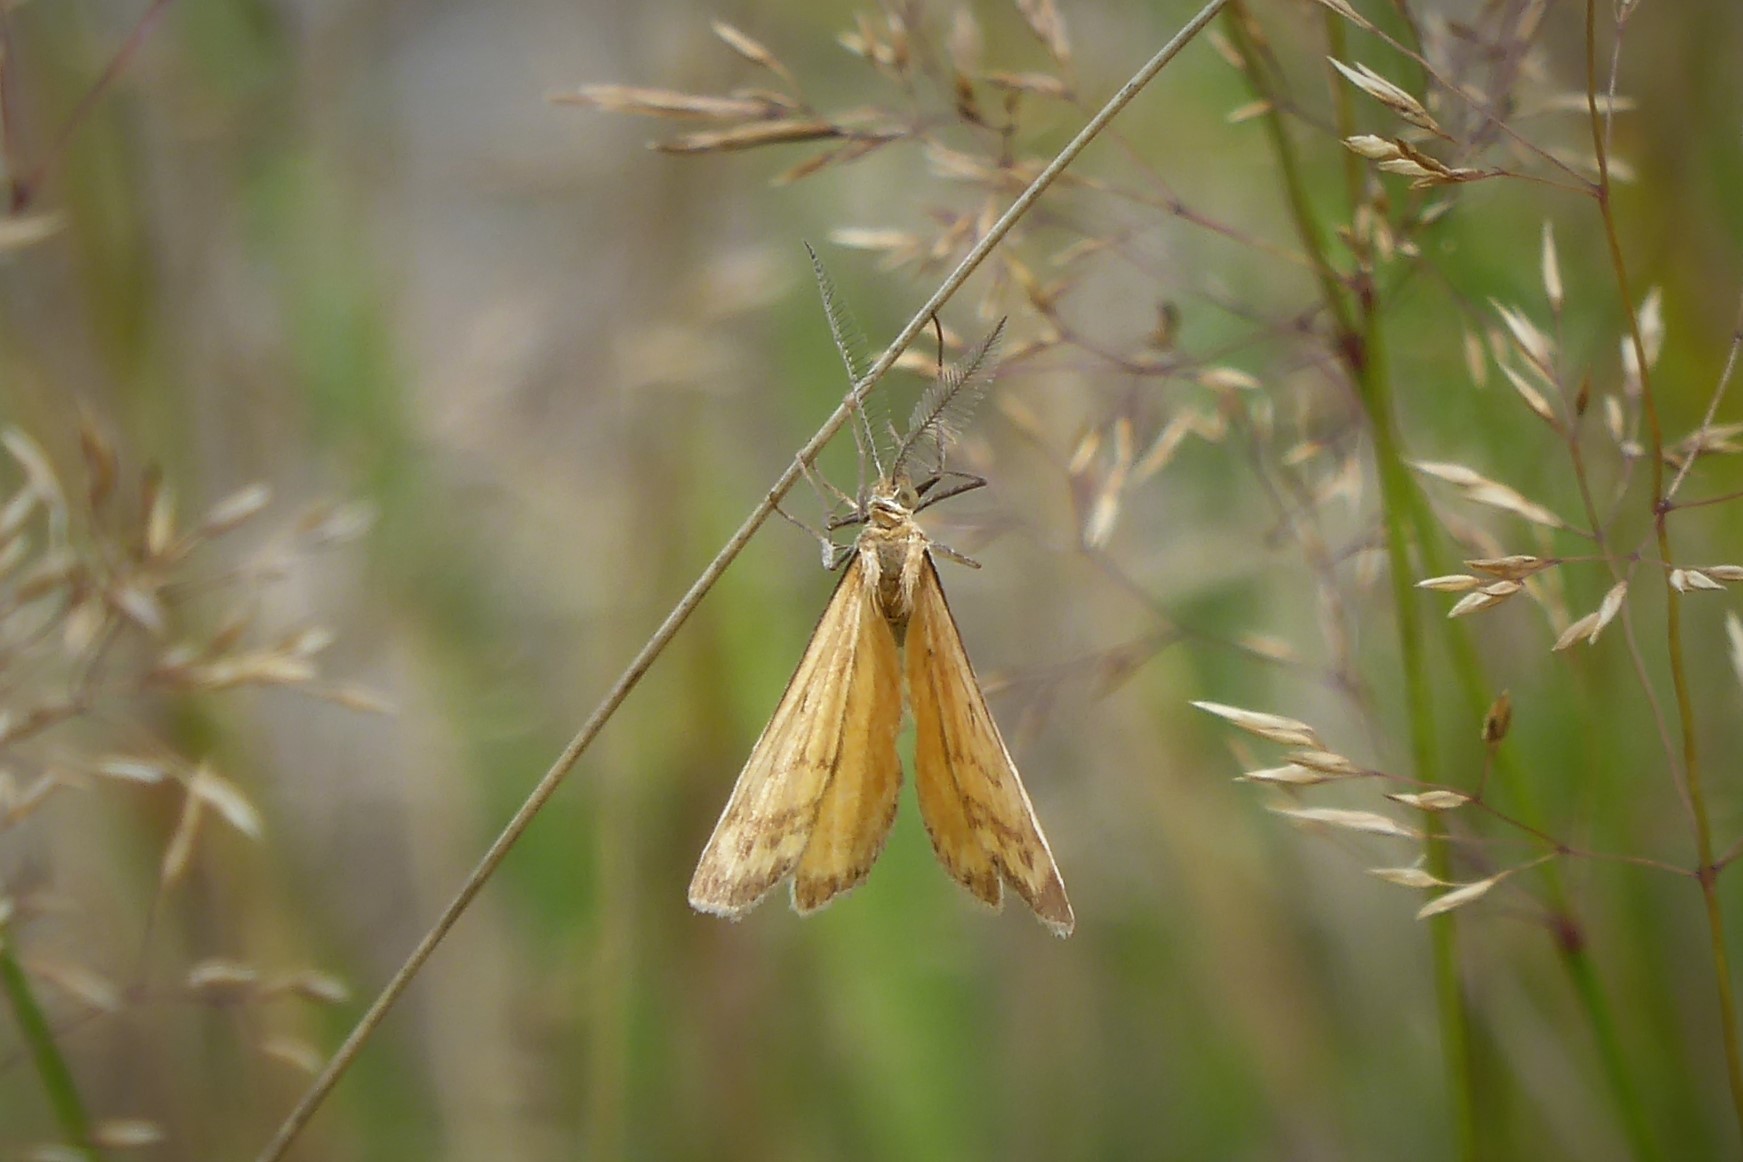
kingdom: Animalia
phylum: Arthropoda
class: Insecta
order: Lepidoptera
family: Geometridae
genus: Asaphodes
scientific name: Asaphodes abrogata
